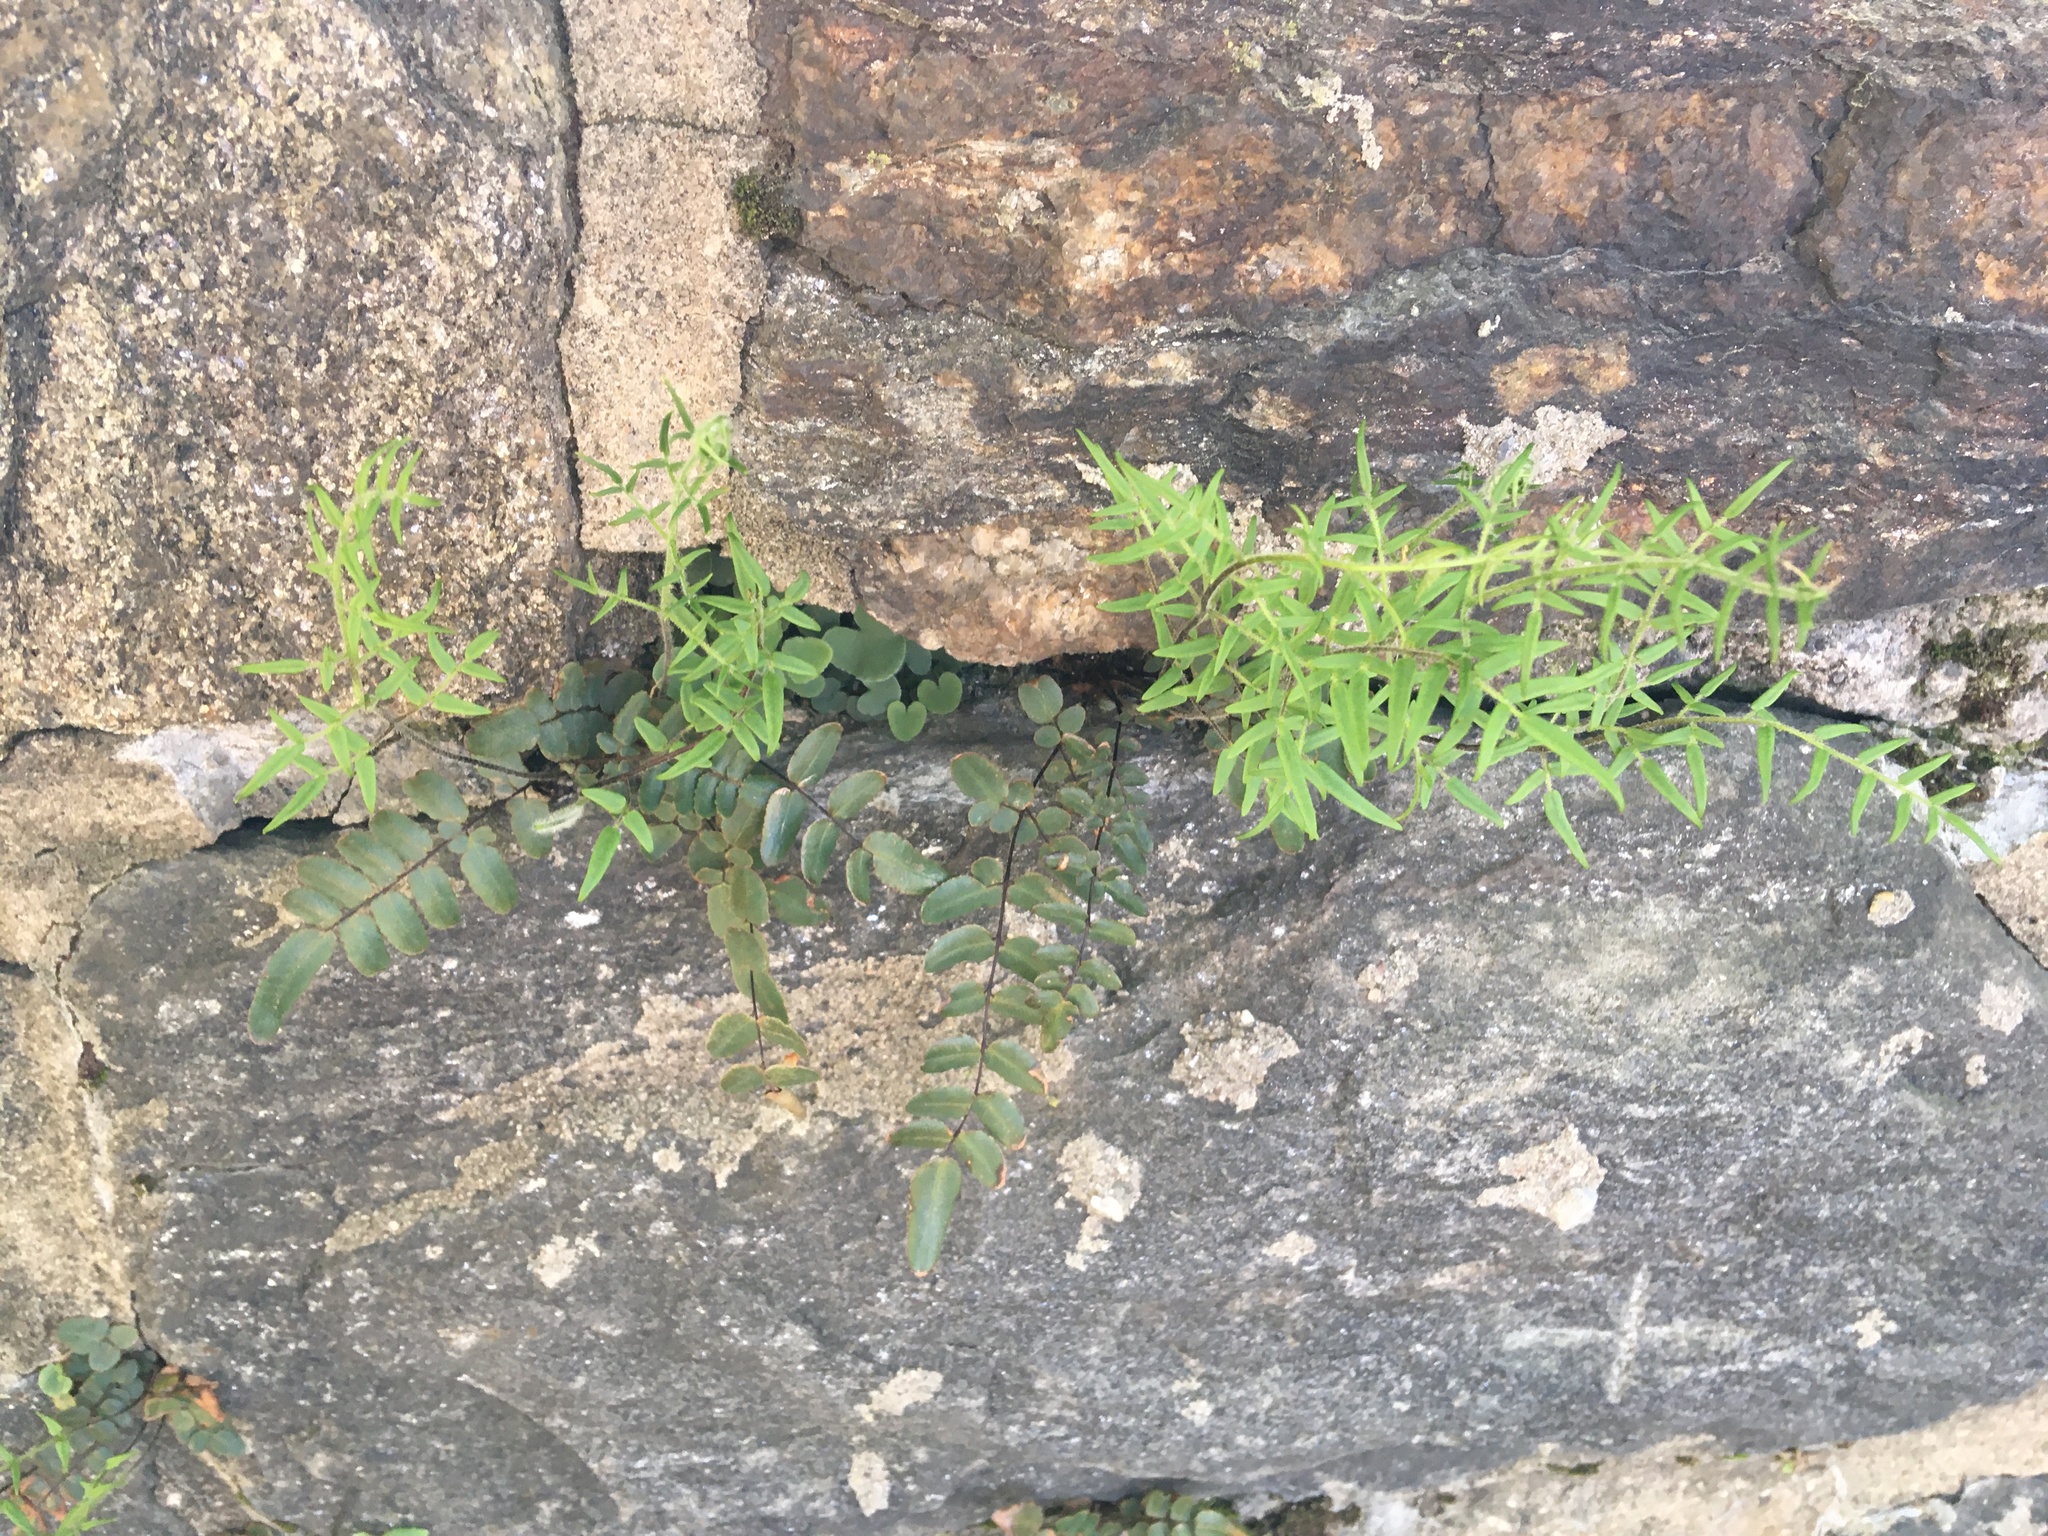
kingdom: Plantae
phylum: Tracheophyta
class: Polypodiopsida
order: Polypodiales
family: Pteridaceae
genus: Pellaea
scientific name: Pellaea atropurpurea
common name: Hairy cliffbrake
